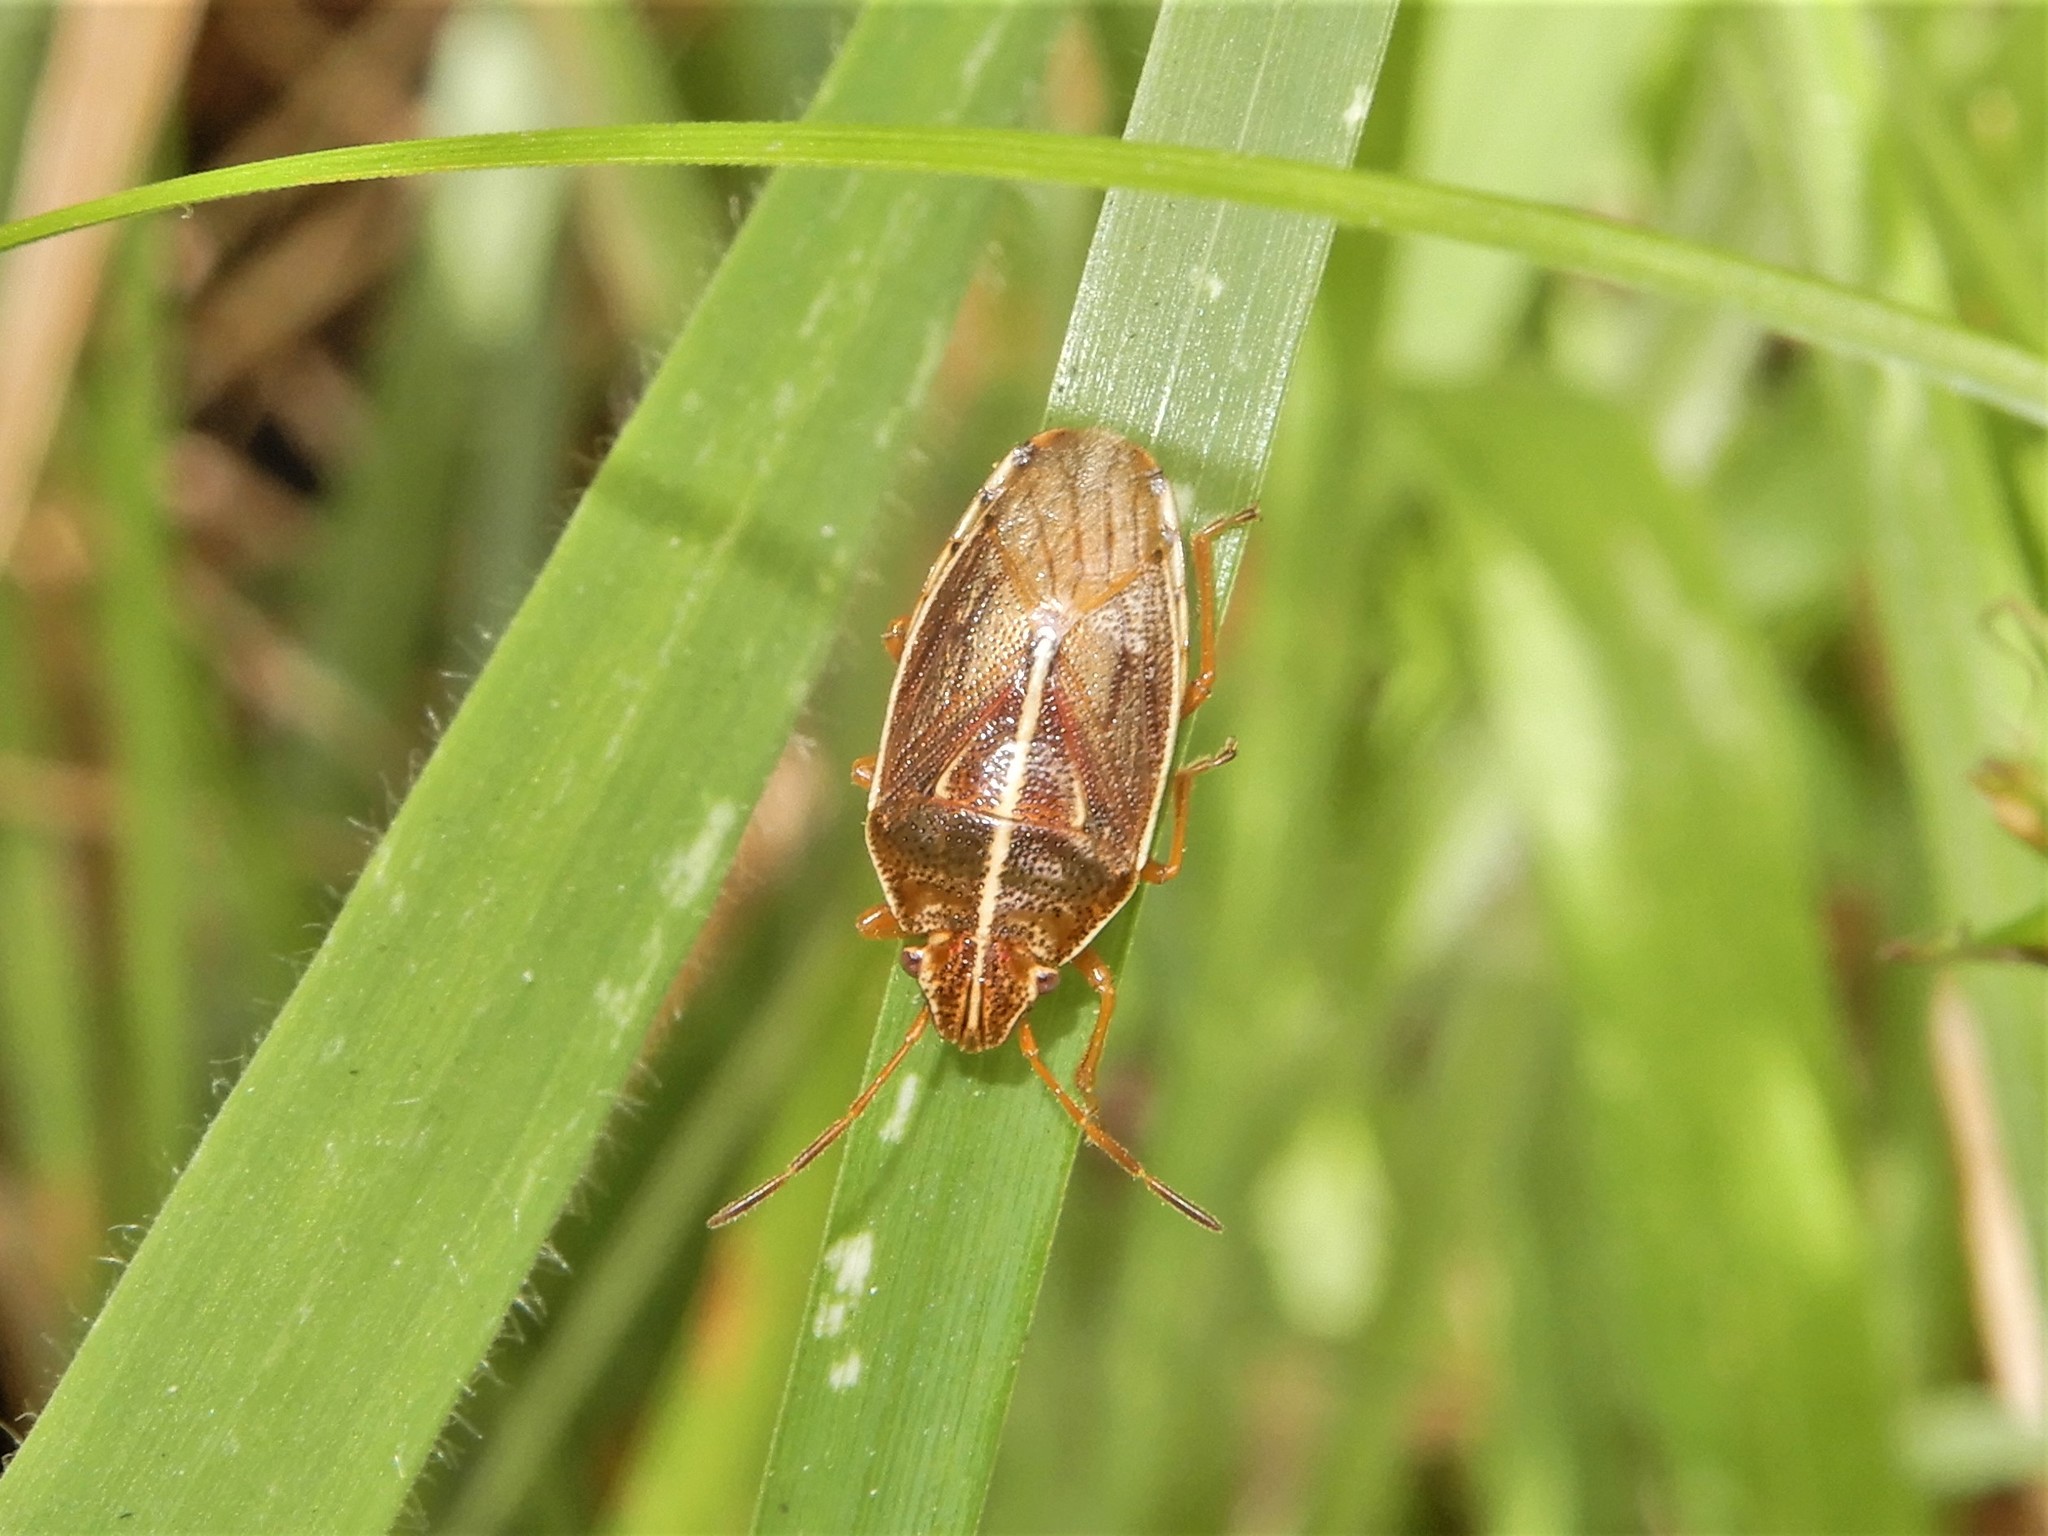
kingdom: Animalia
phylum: Arthropoda
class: Insecta
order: Hemiptera
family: Acanthosomatidae
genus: Rhopalimorpha
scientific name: Rhopalimorpha lineolaris
